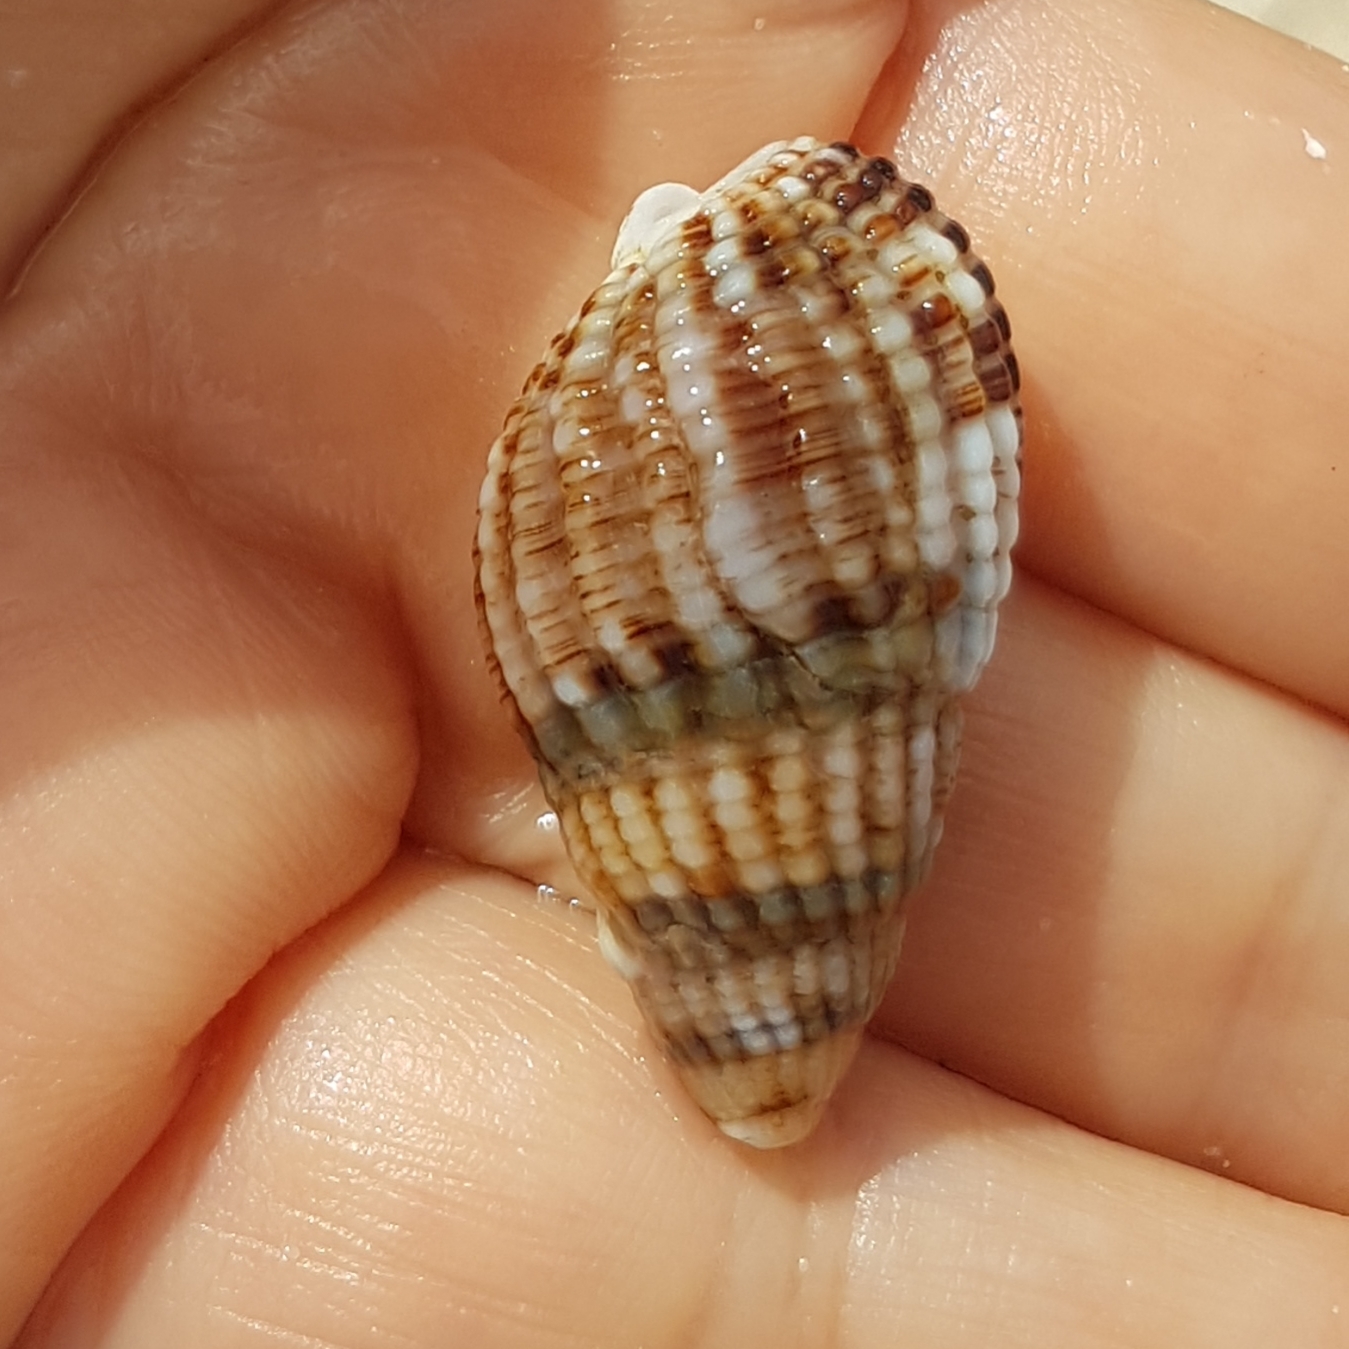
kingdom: Animalia
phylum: Mollusca
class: Gastropoda
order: Neogastropoda
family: Nassariidae
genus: Tritia
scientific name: Tritia reticulata
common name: Netted dog whelk
